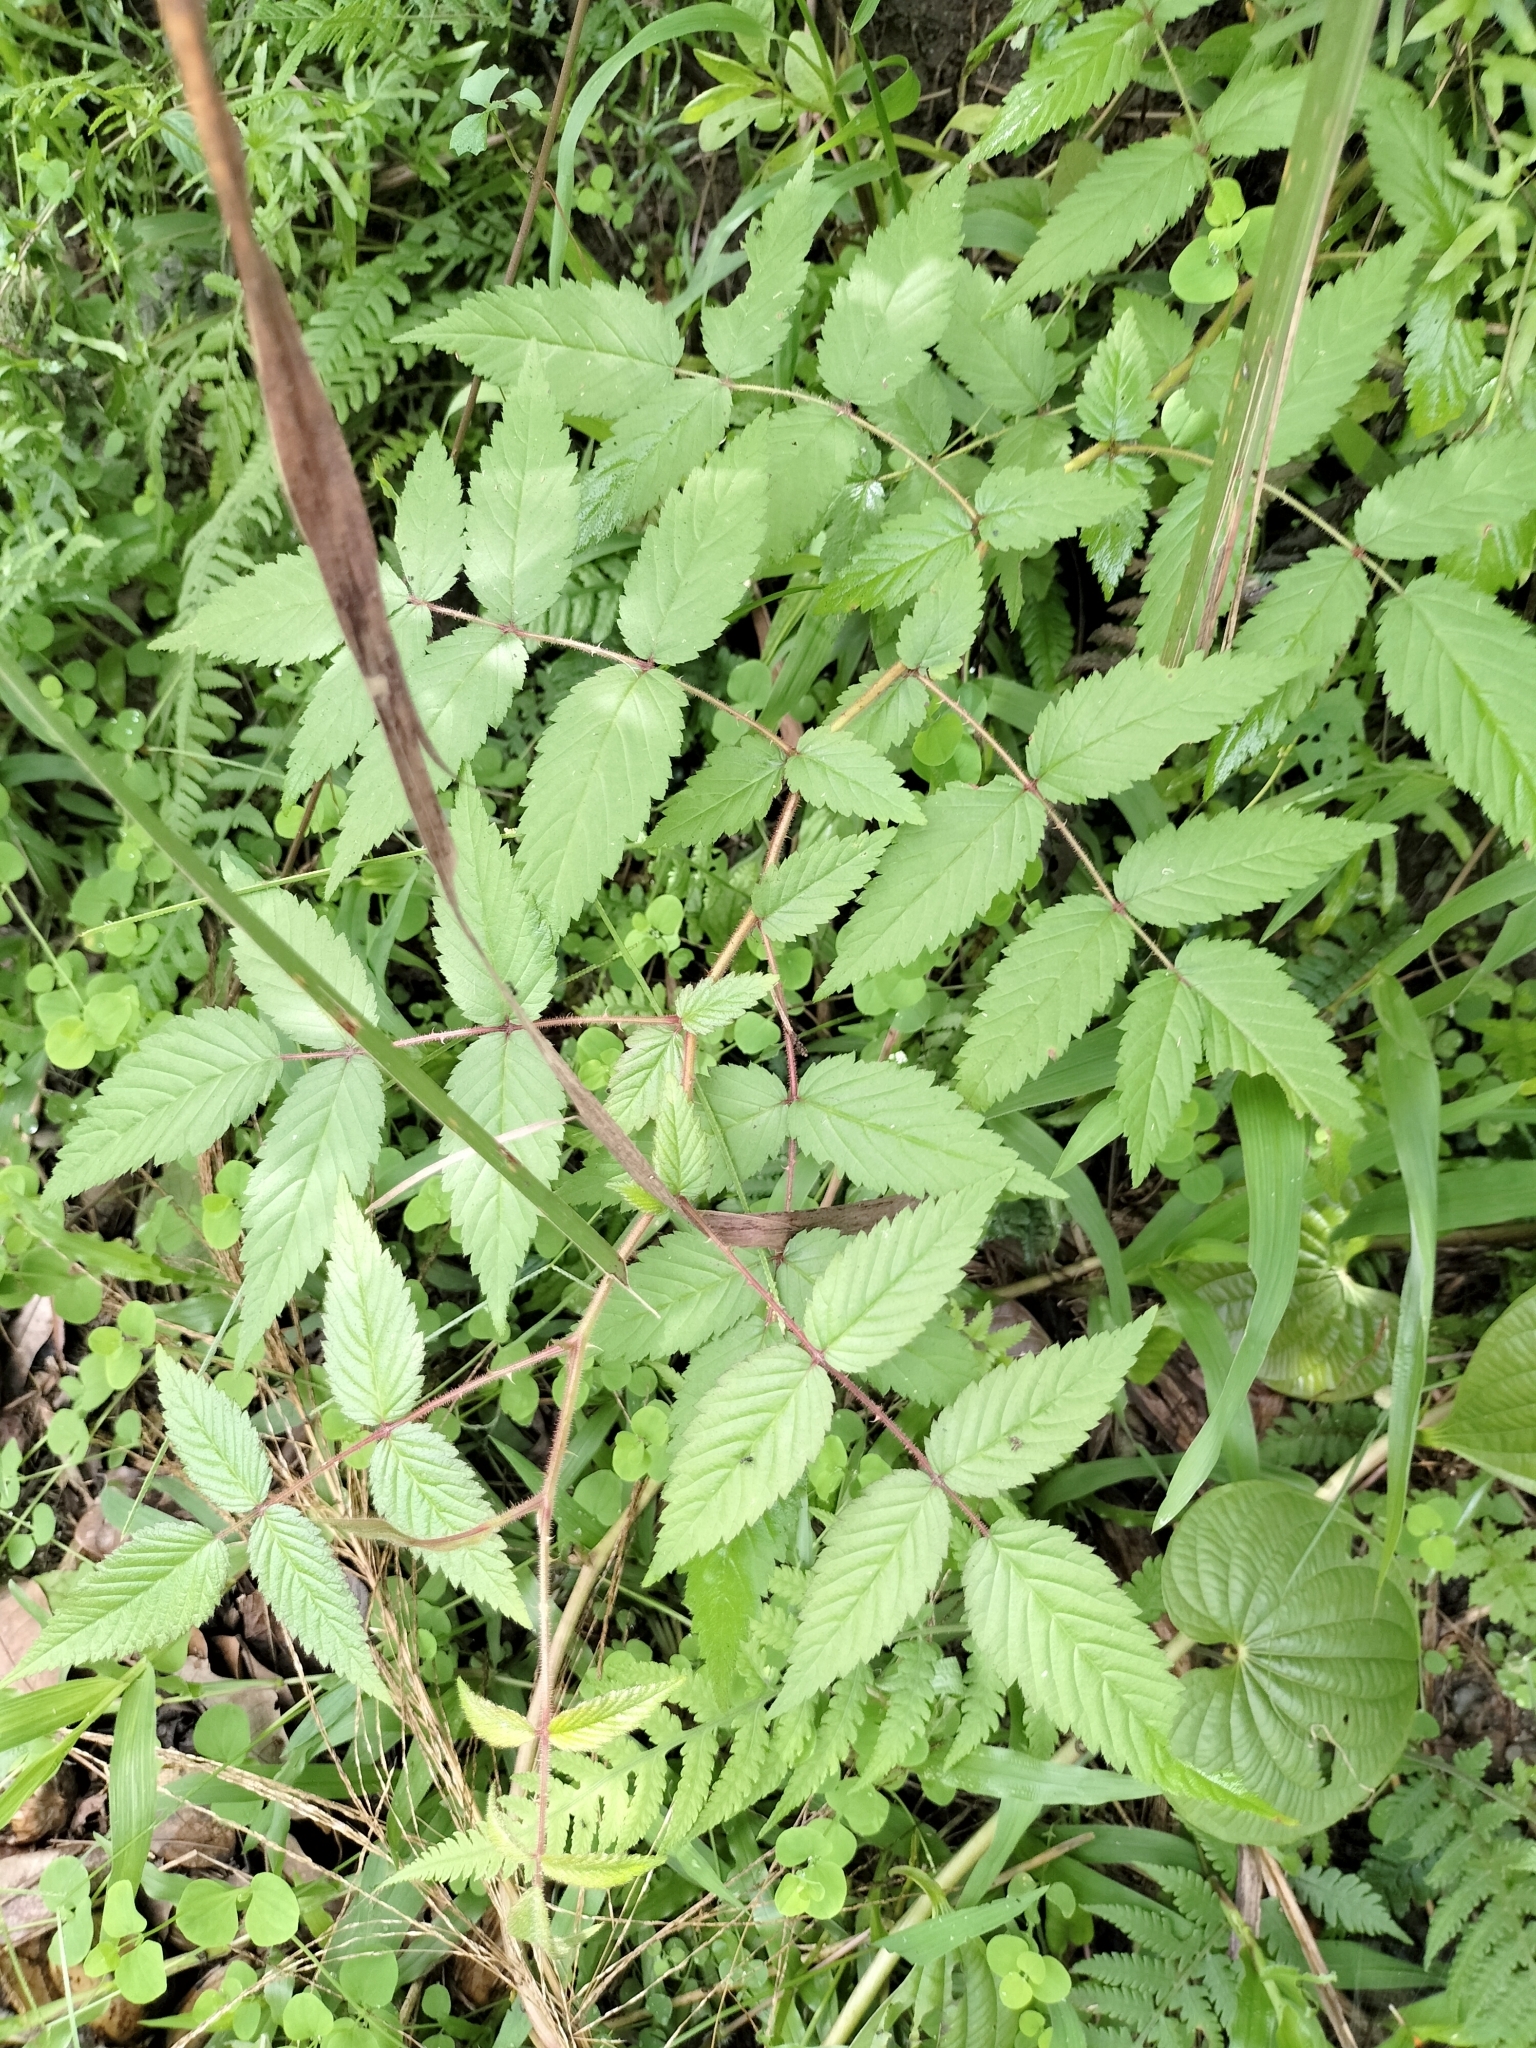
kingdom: Plantae
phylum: Tracheophyta
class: Magnoliopsida
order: Rosales
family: Rosaceae
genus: Rubus
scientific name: Rubus croceacanthus
